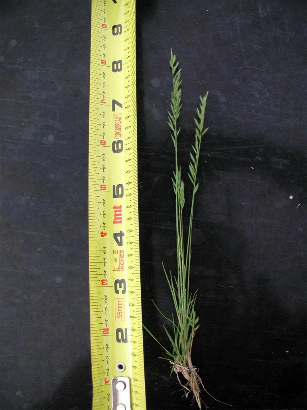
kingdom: Plantae
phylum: Tracheophyta
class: Liliopsida
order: Poales
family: Poaceae
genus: Festuca
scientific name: Festuca octoflora
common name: Sixweeks grass
